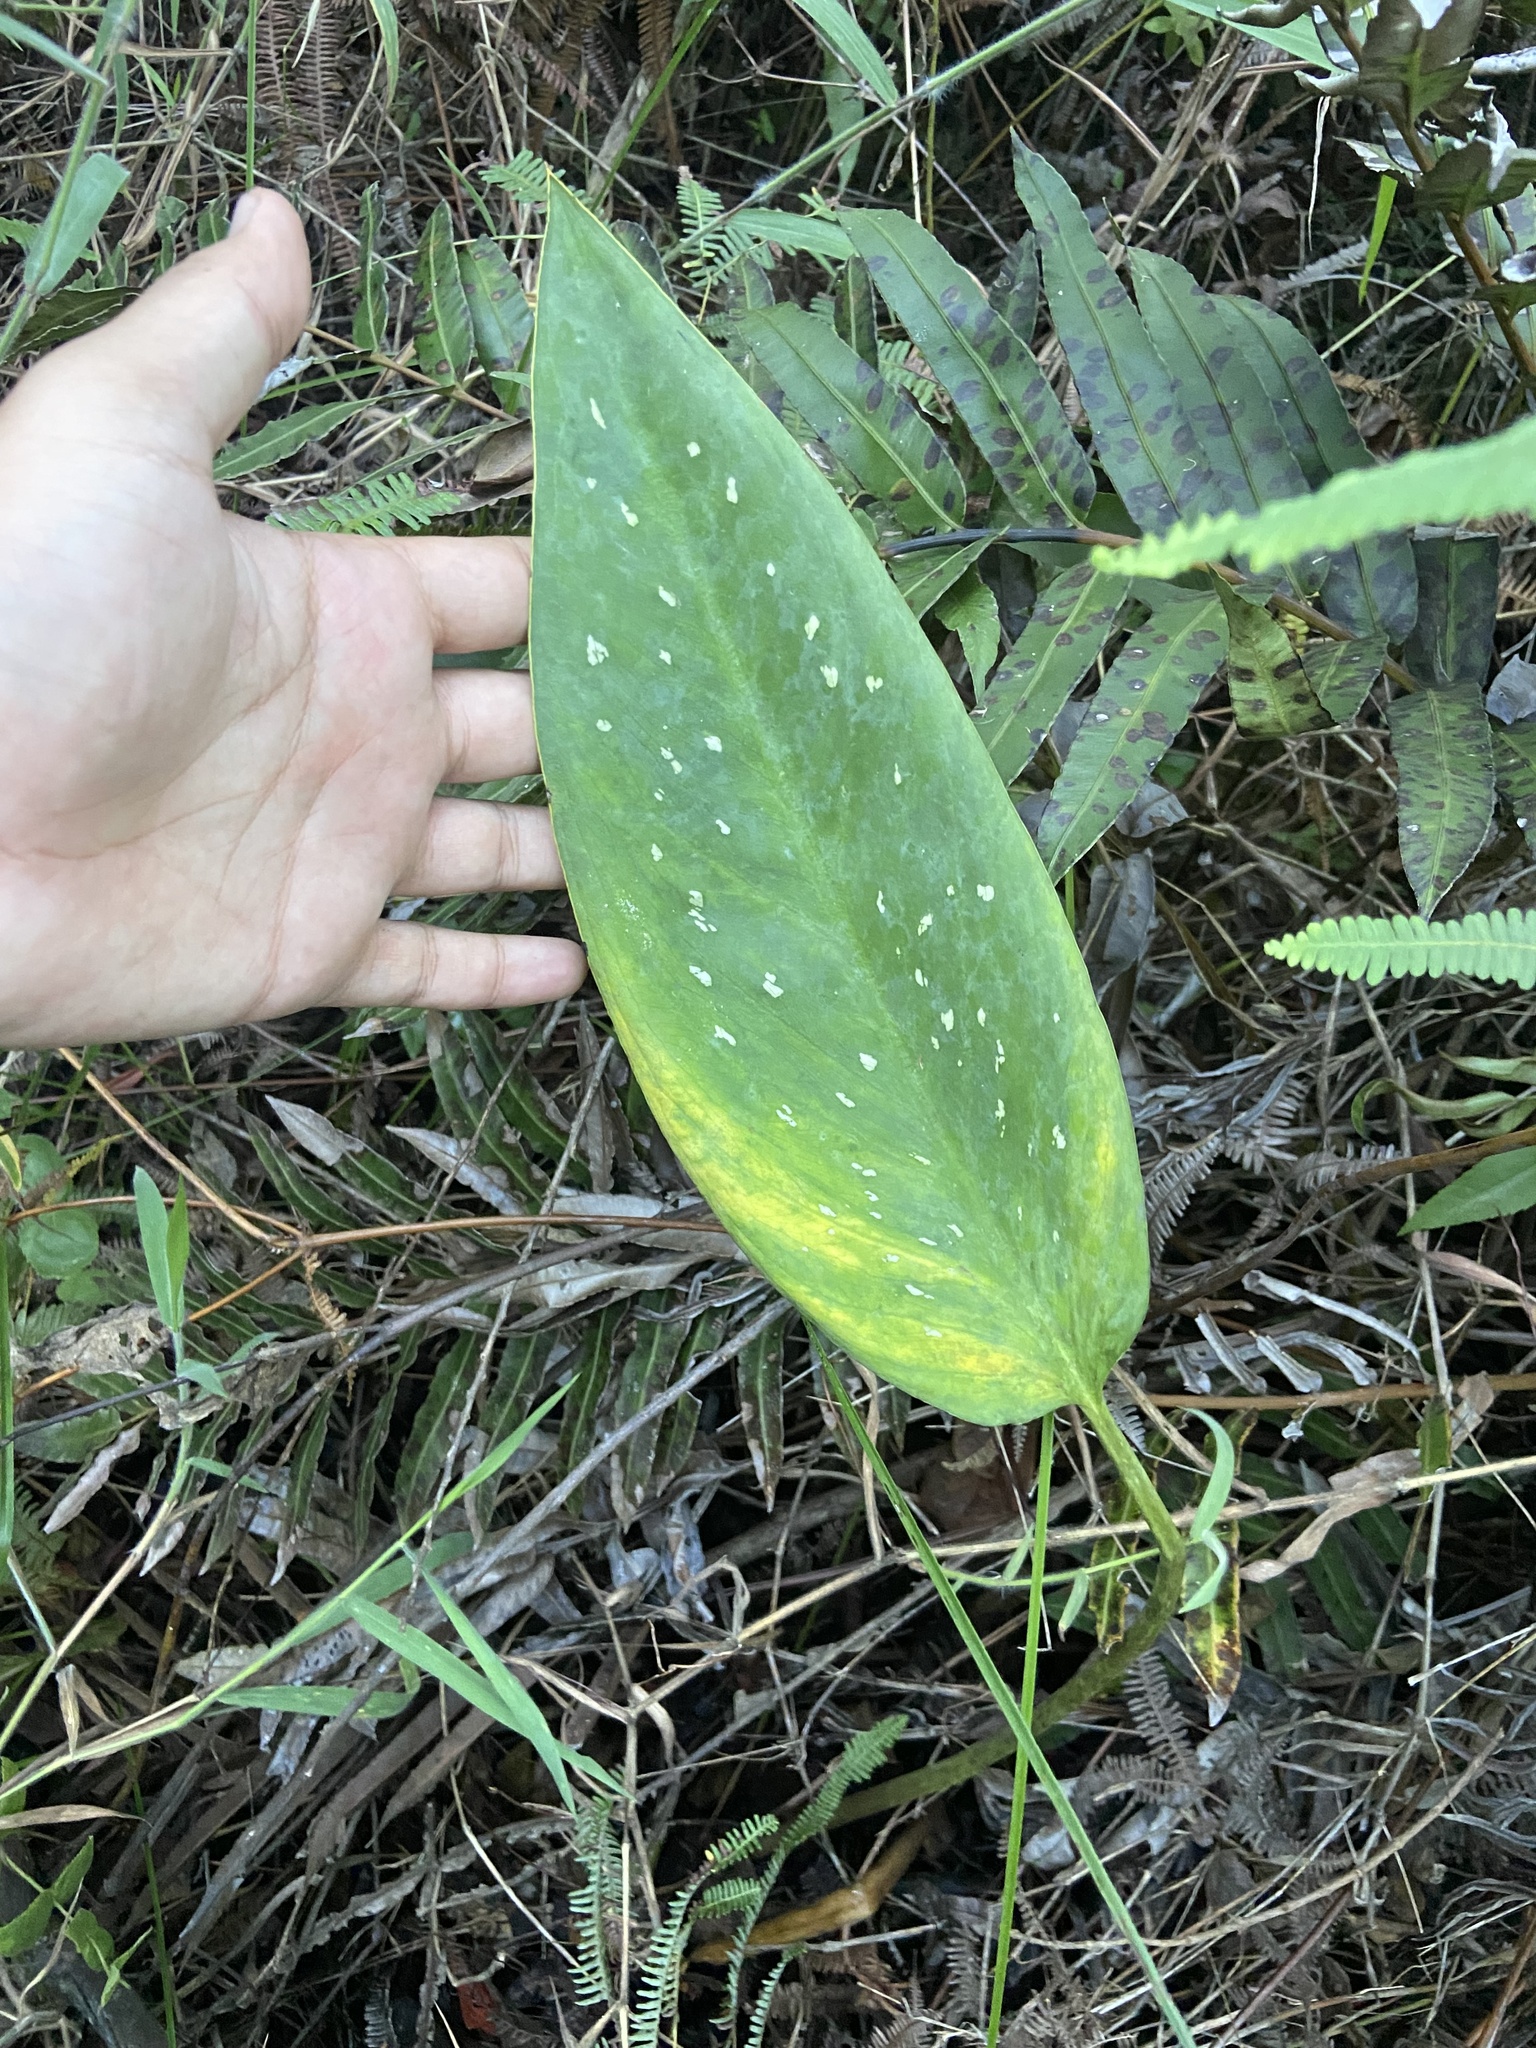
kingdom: Plantae
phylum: Tracheophyta
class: Liliopsida
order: Alismatales
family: Araceae
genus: Xanthosoma
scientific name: Xanthosoma striatipes
